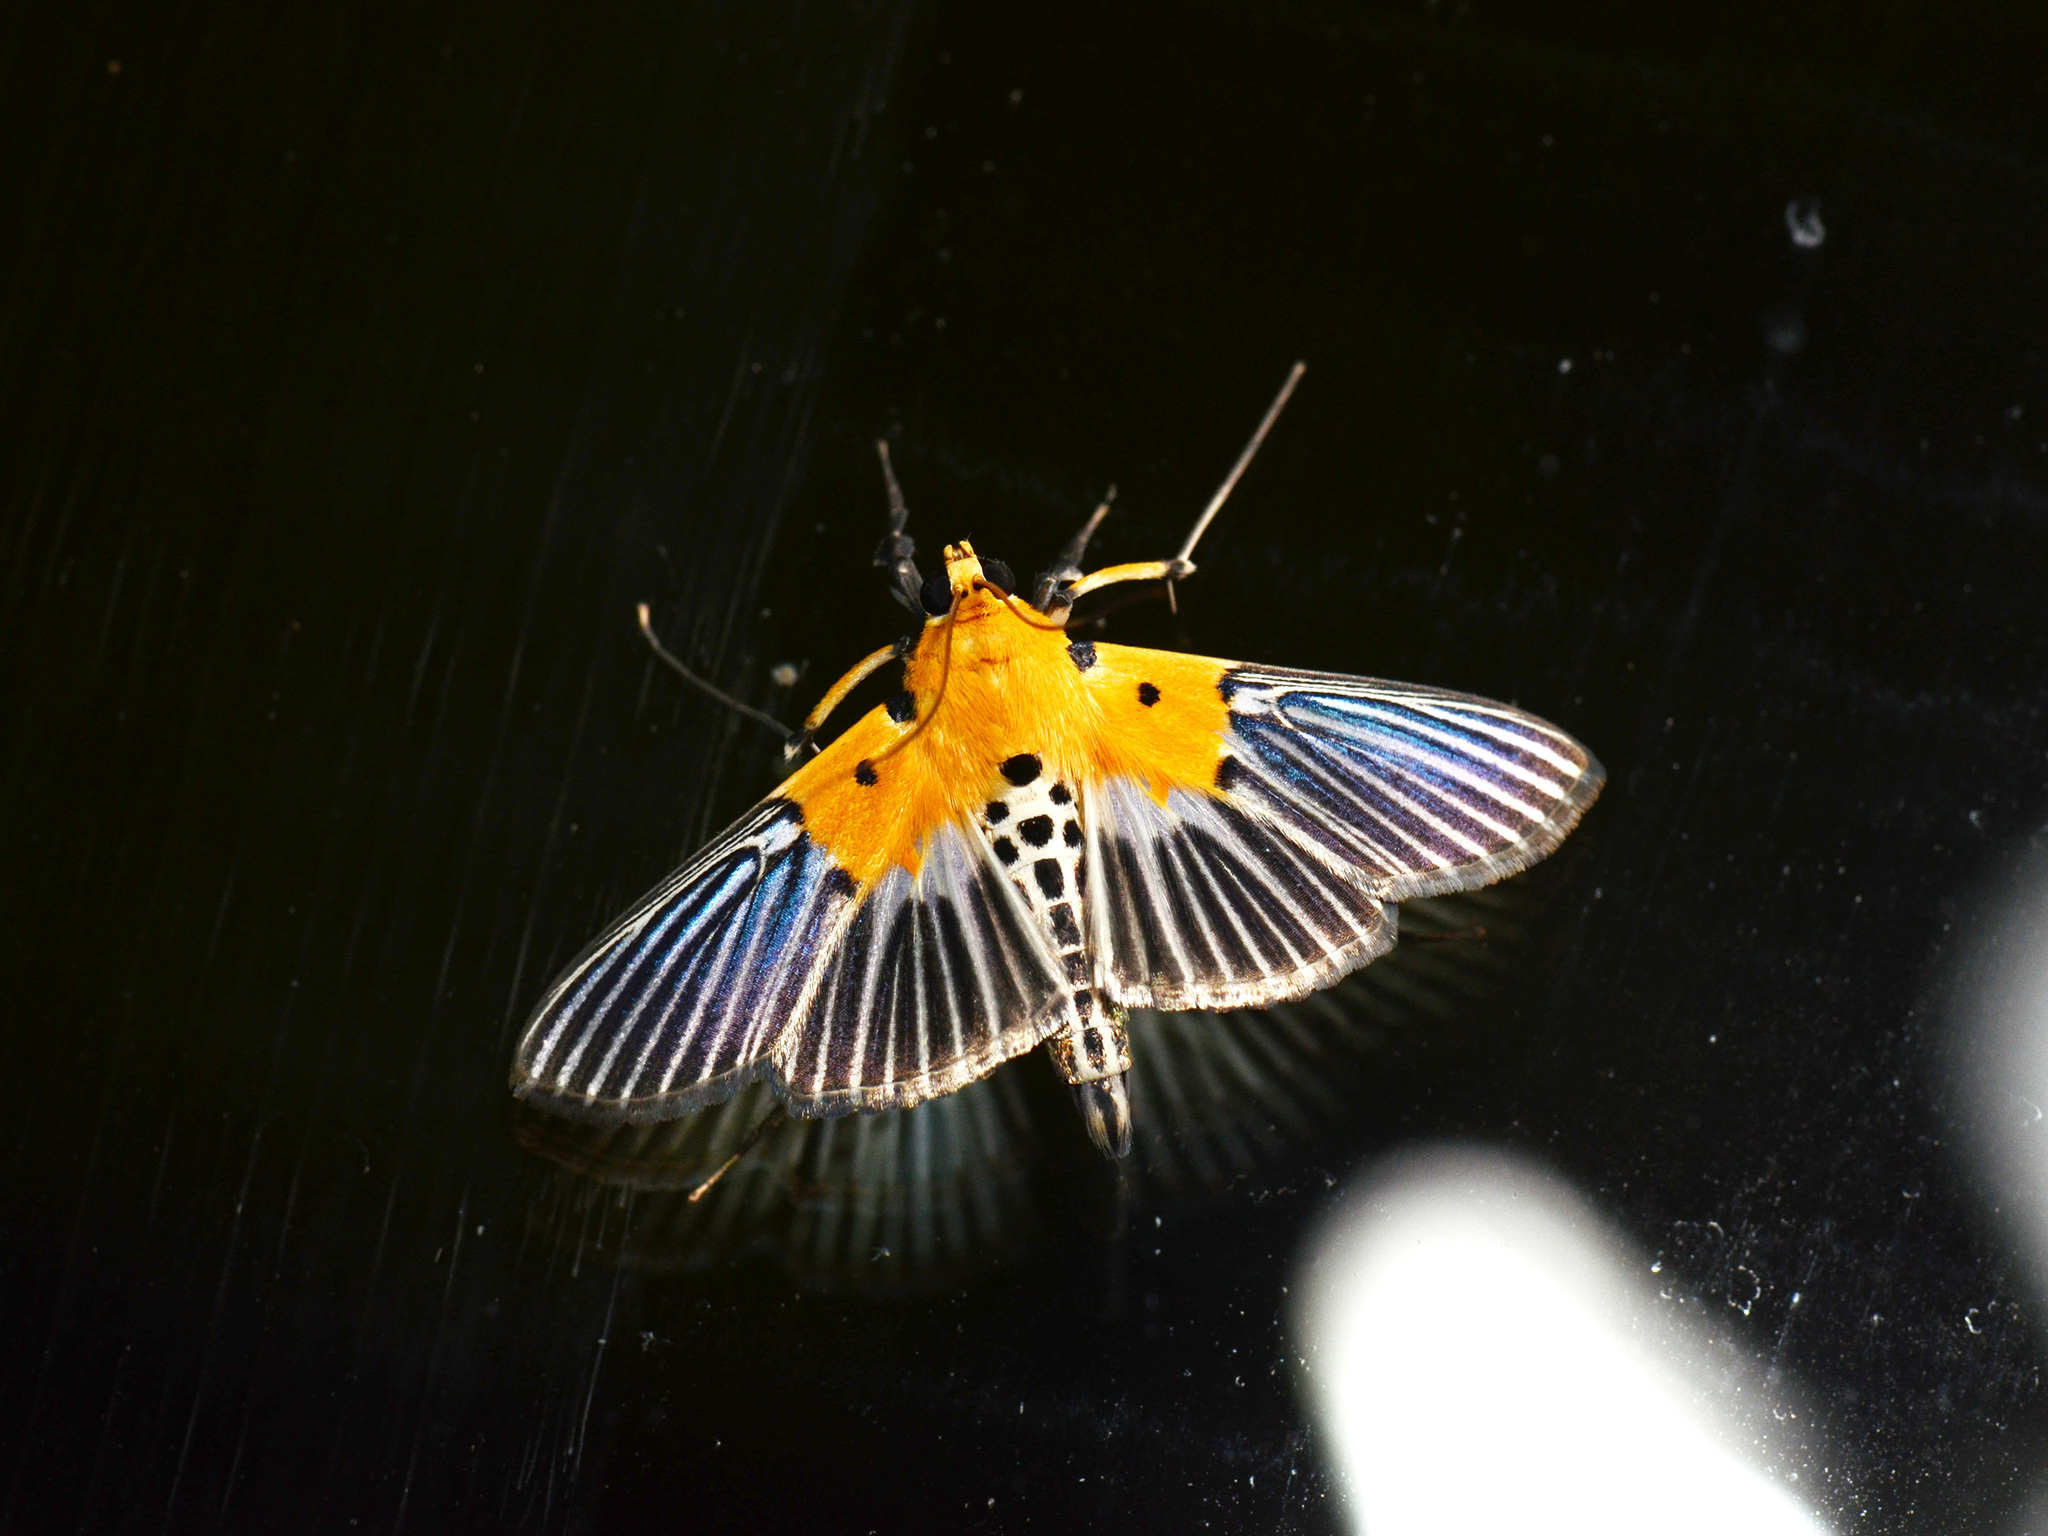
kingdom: Animalia
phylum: Arthropoda
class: Insecta
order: Lepidoptera
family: Crambidae
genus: Nevrina
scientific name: Nevrina procopia
